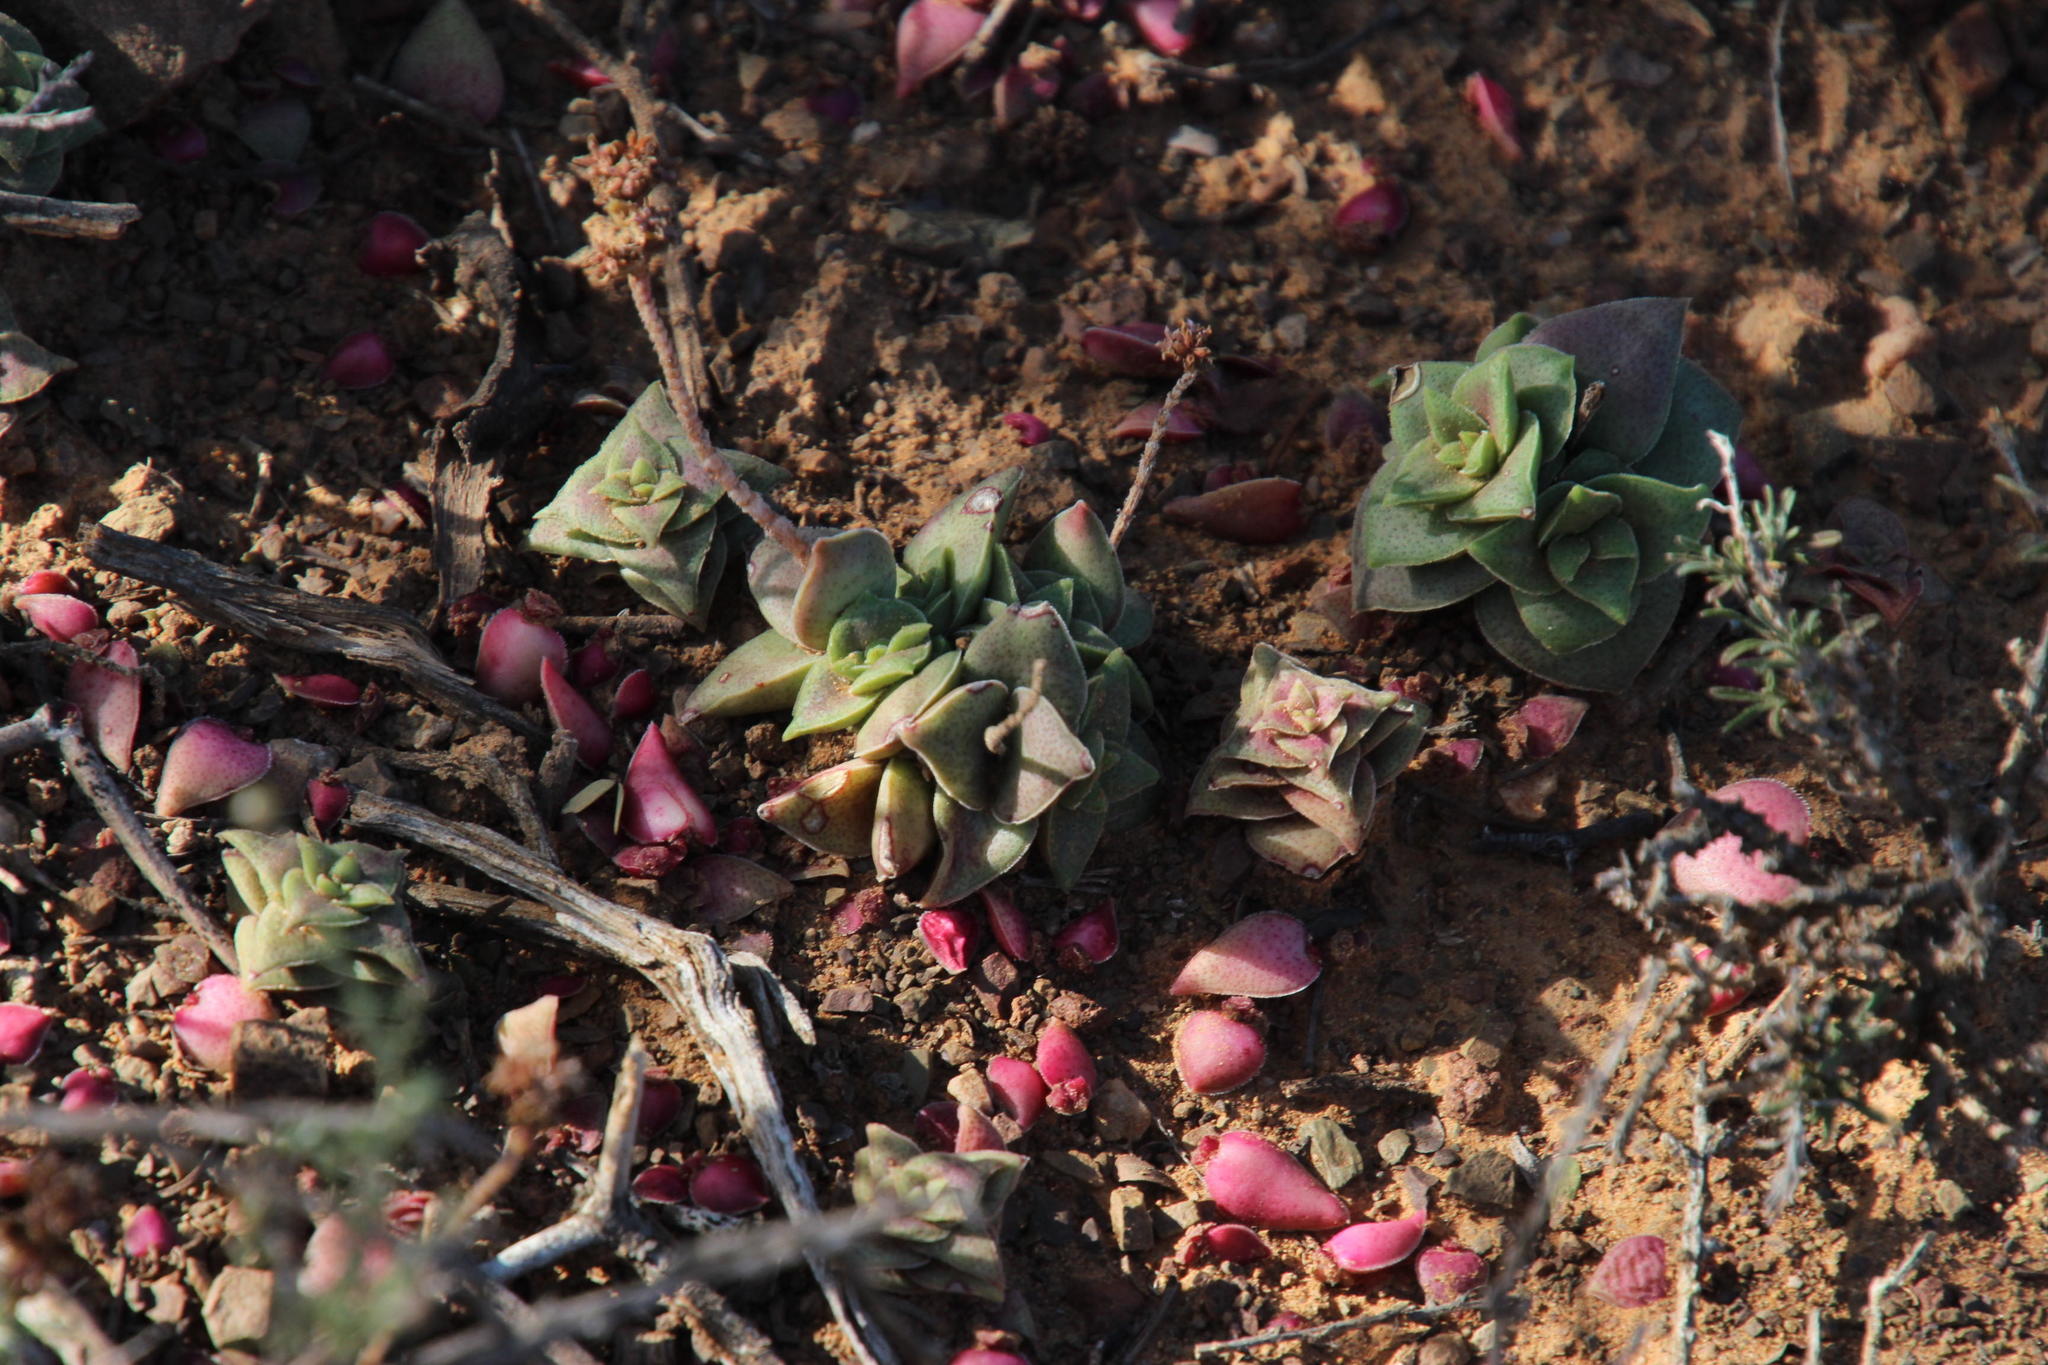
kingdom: Plantae
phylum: Tracheophyta
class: Magnoliopsida
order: Saxifragales
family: Crassulaceae
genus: Crassula
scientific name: Crassula capitella
